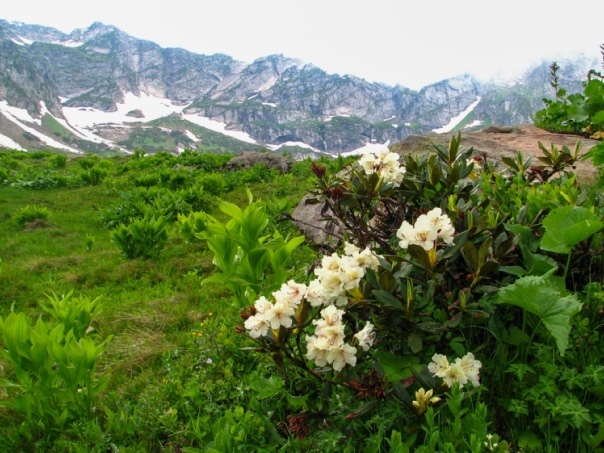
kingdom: Plantae
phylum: Tracheophyta
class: Magnoliopsida
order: Ericales
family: Ericaceae
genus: Rhododendron
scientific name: Rhododendron caucasicum
